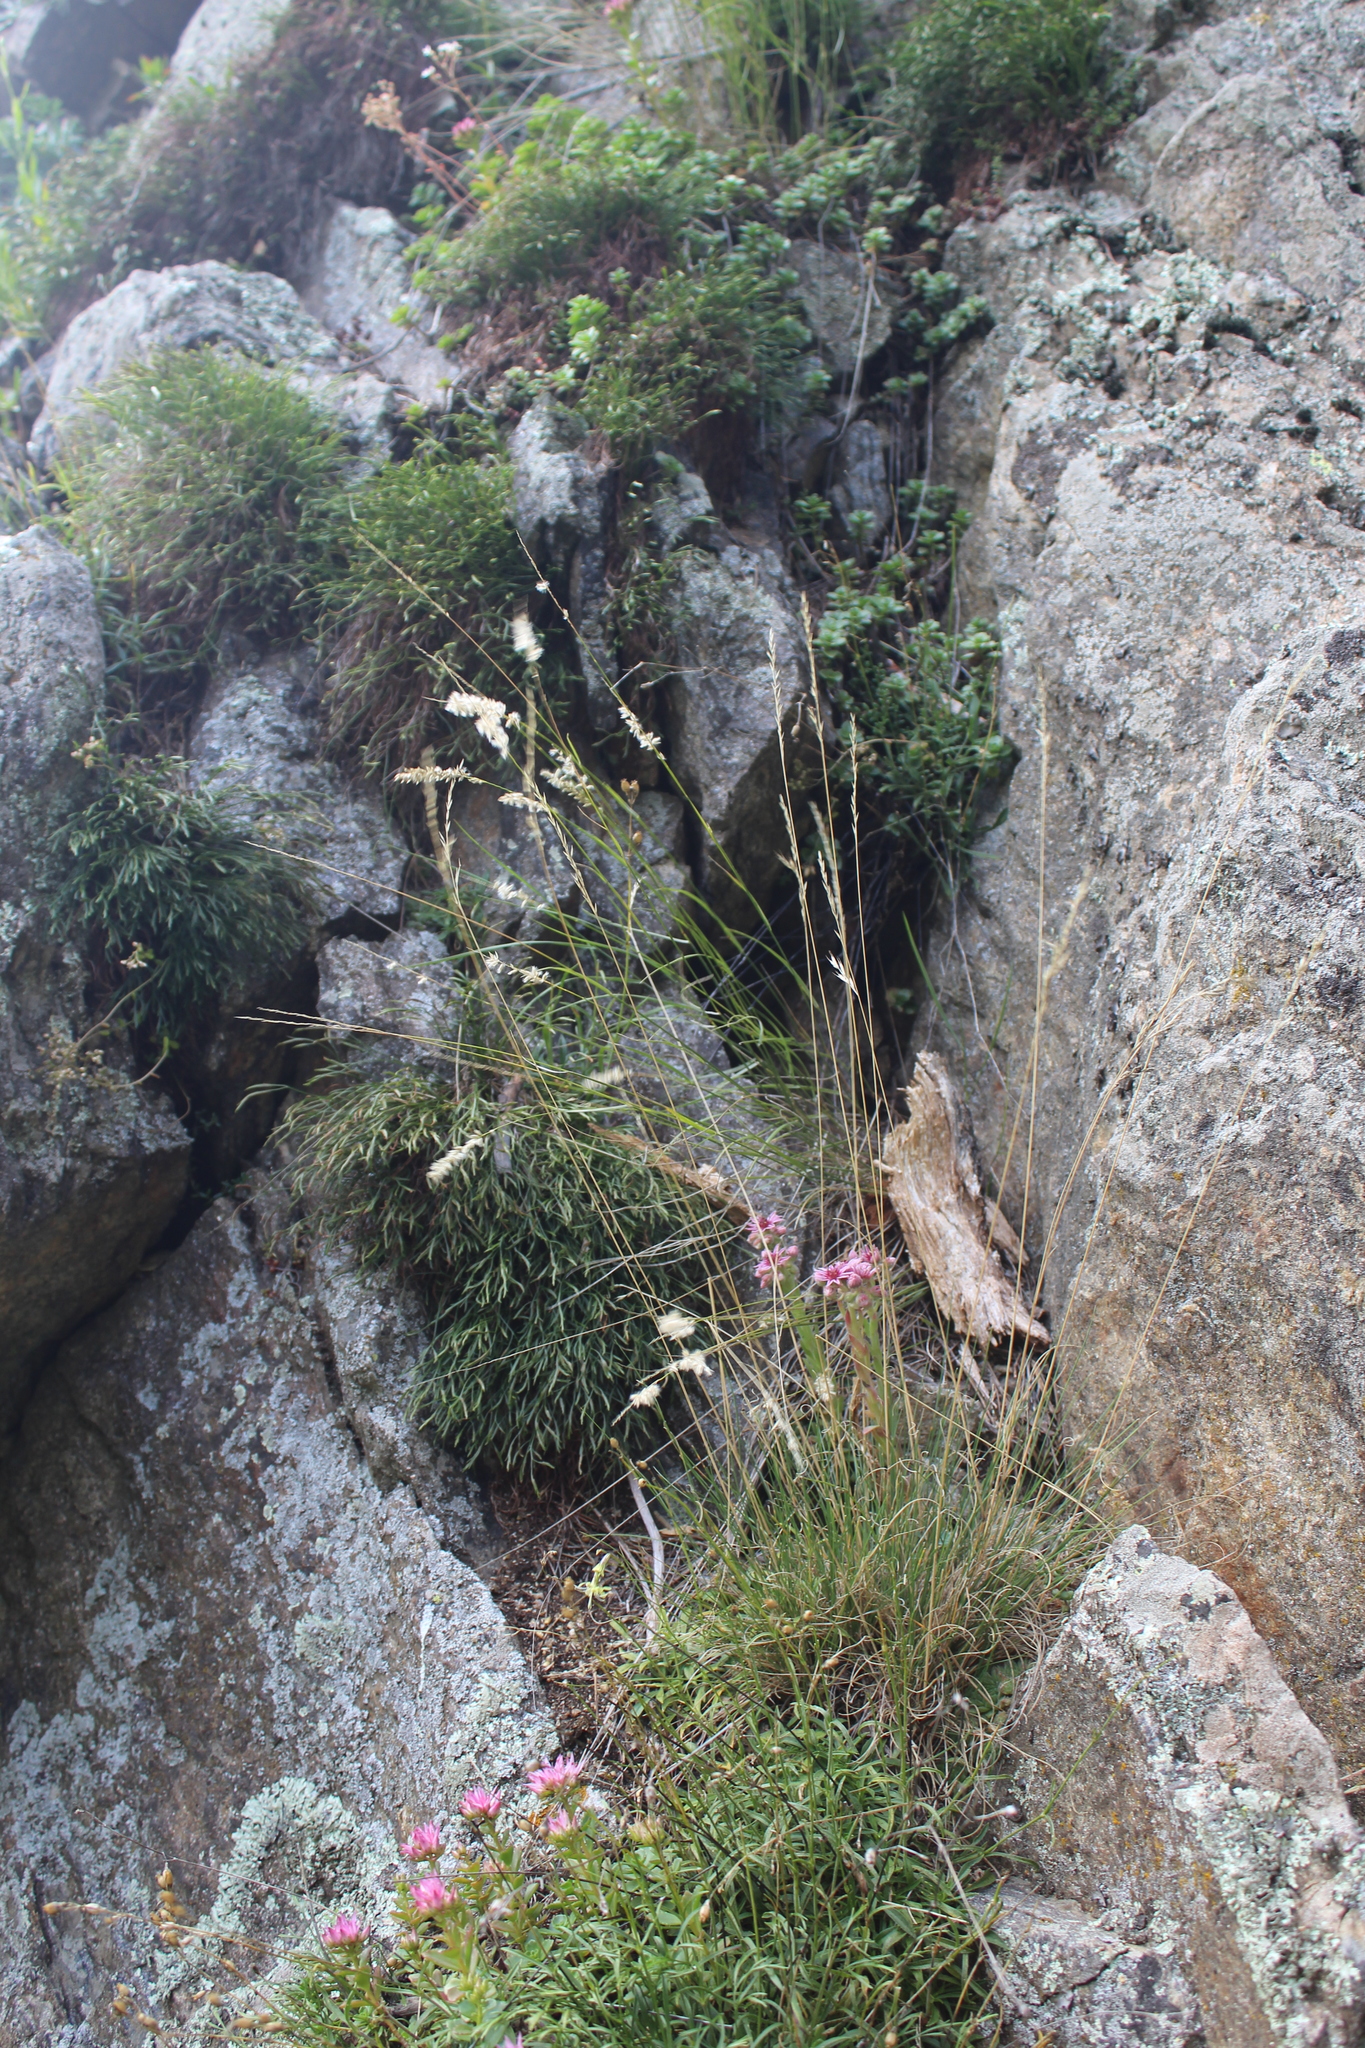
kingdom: Plantae
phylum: Tracheophyta
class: Liliopsida
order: Poales
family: Poaceae
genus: Melica
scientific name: Melica transsilvanica
